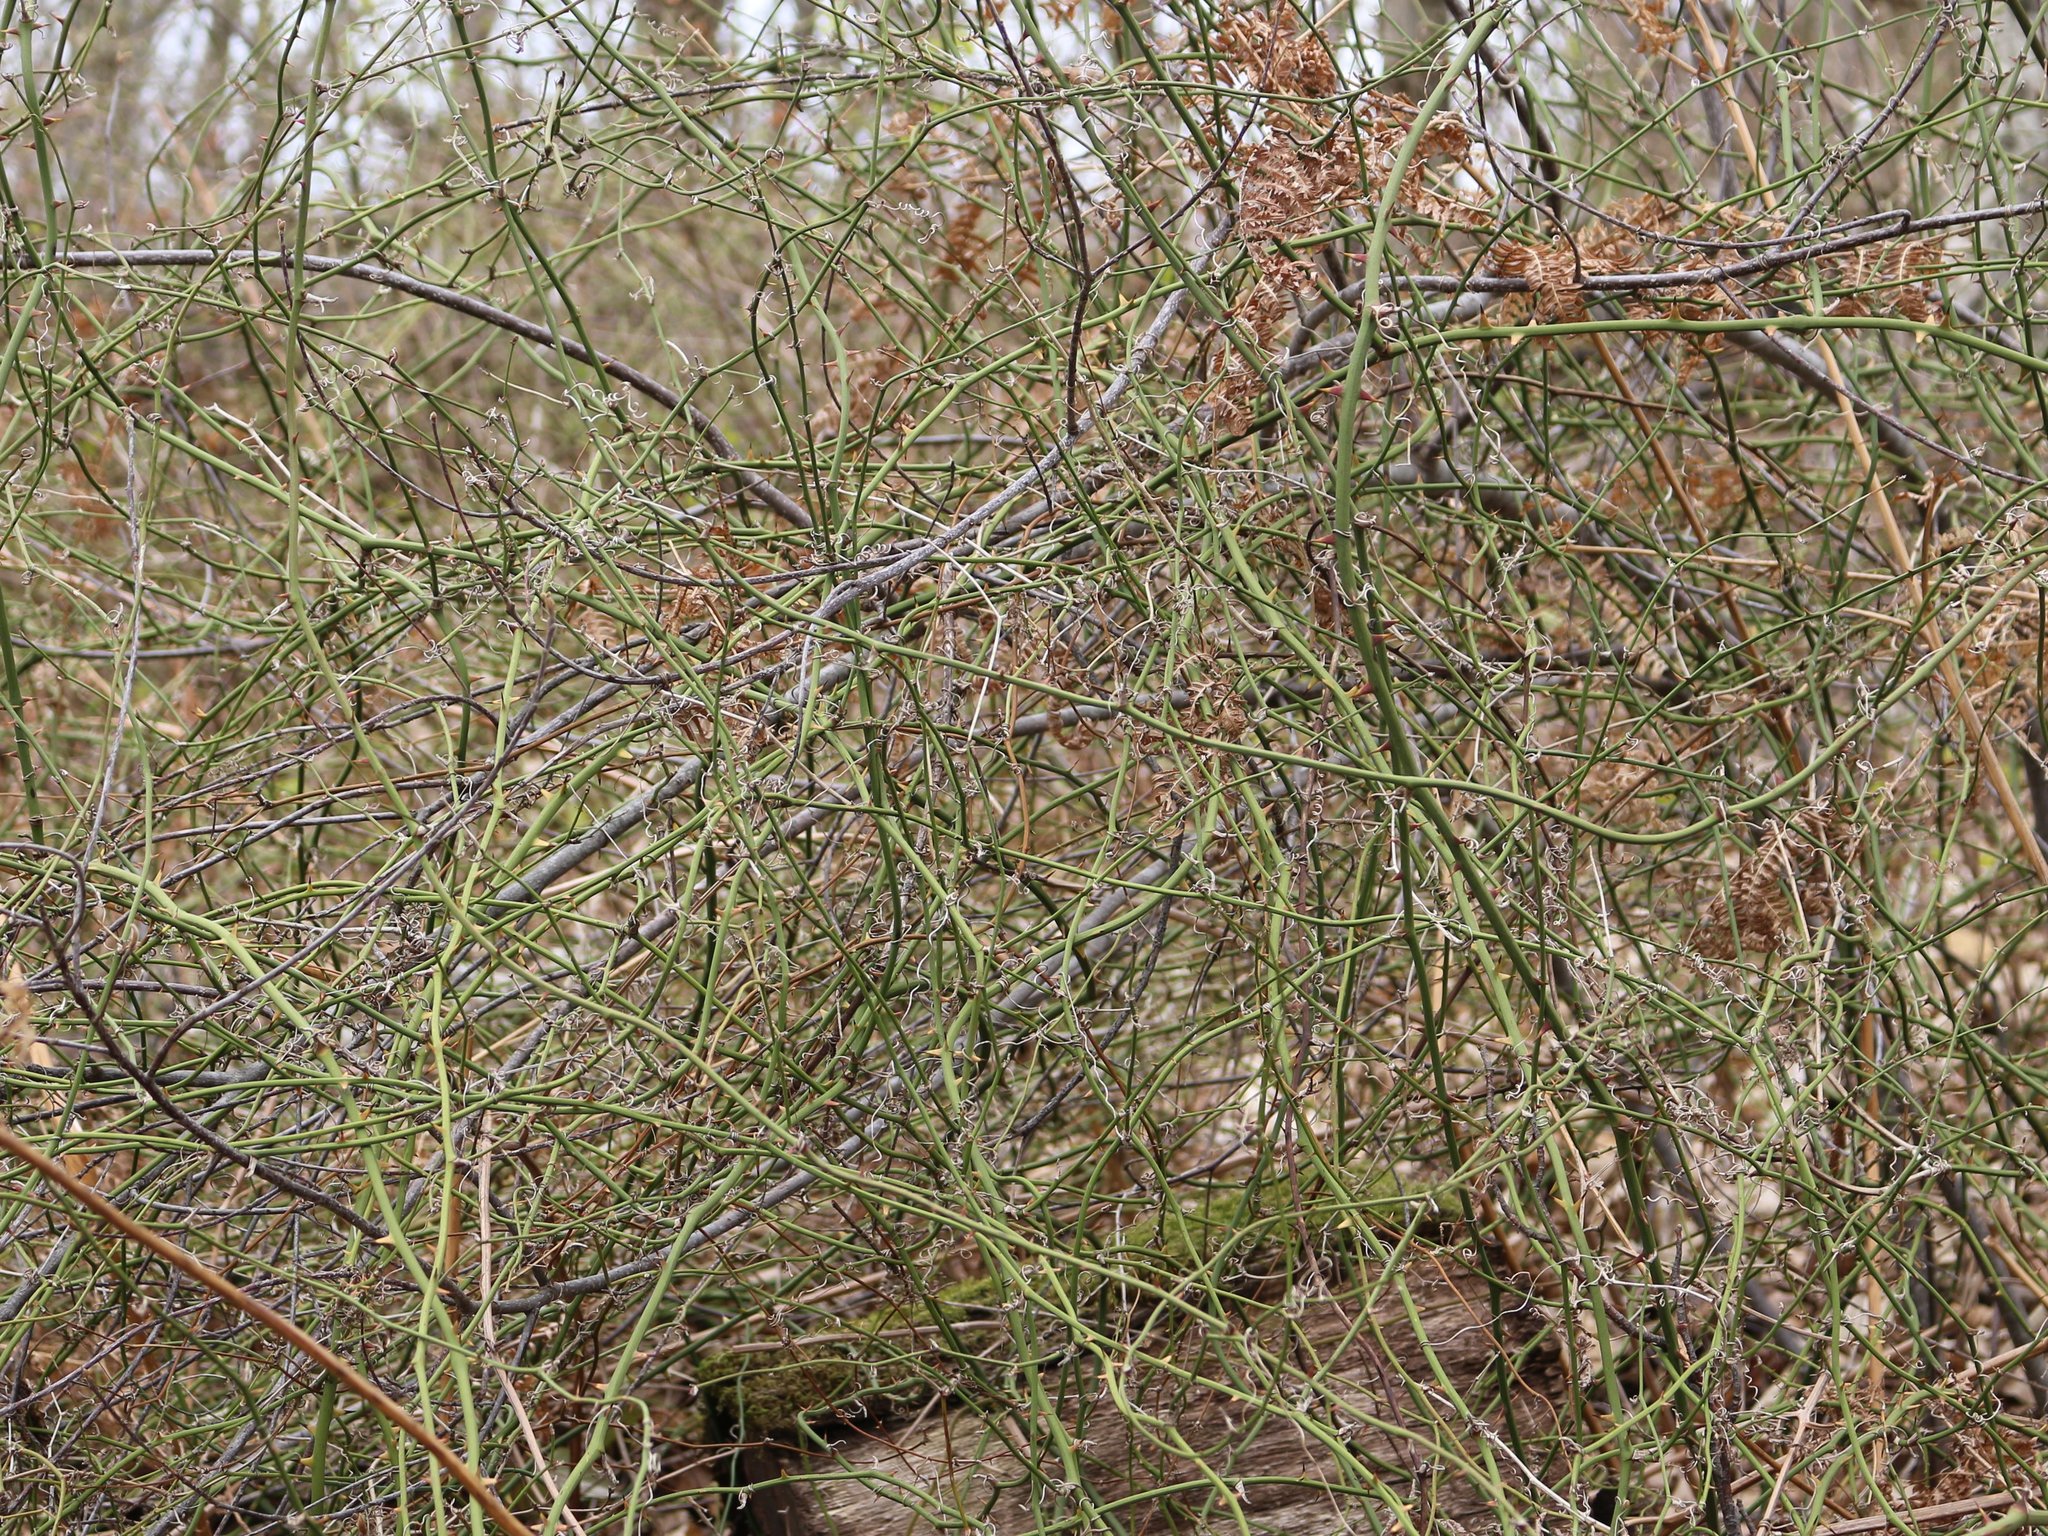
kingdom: Plantae
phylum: Tracheophyta
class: Liliopsida
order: Liliales
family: Smilacaceae
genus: Smilax
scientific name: Smilax excelsa
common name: Larger smilax
